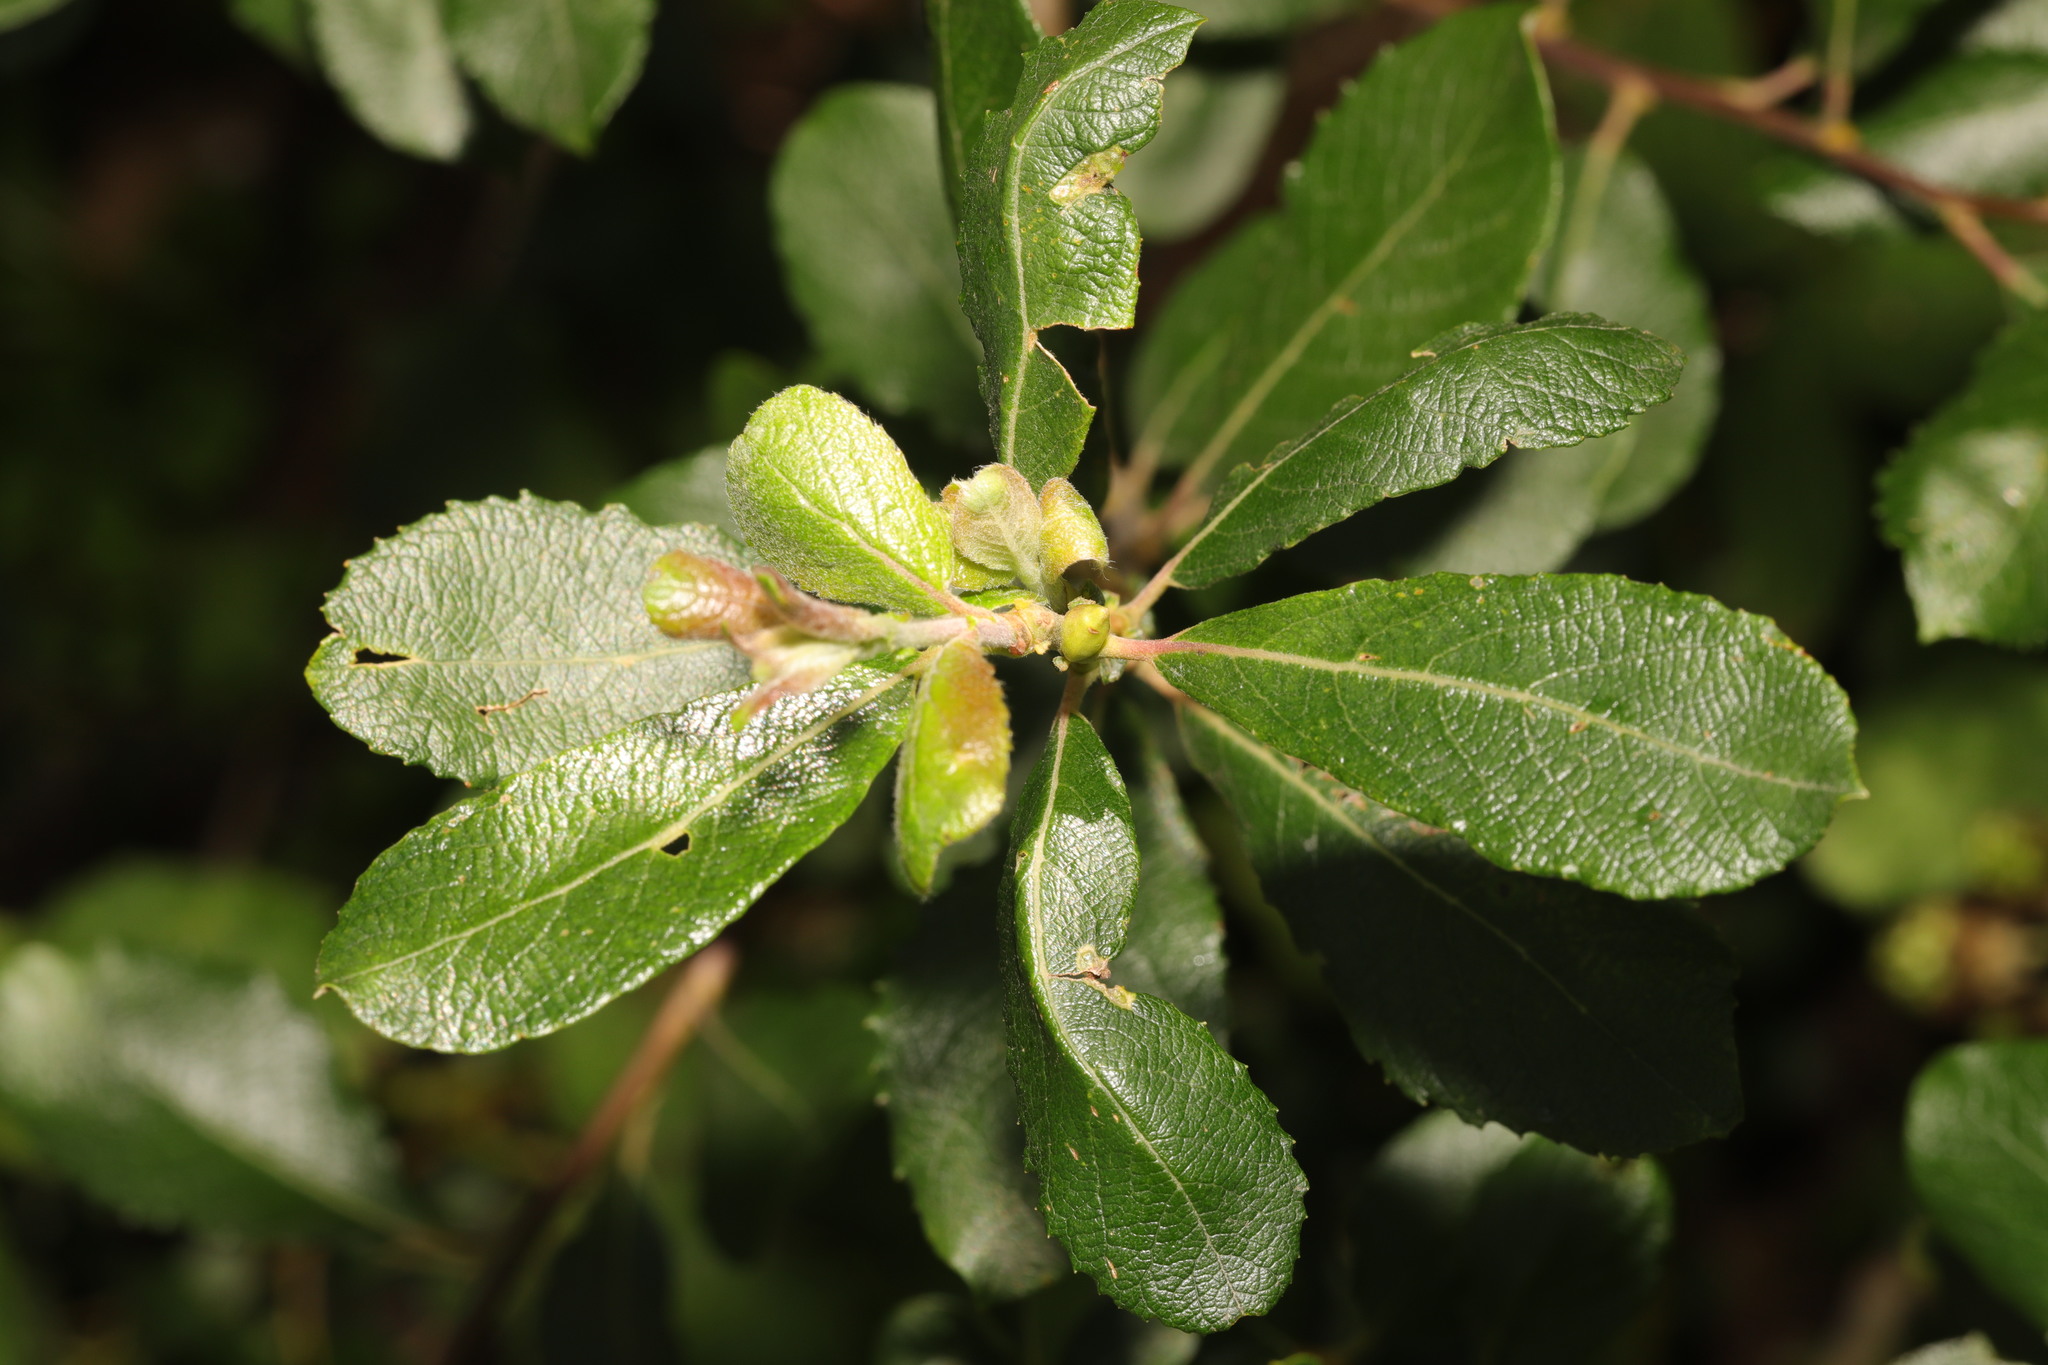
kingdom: Plantae
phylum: Tracheophyta
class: Magnoliopsida
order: Malpighiales
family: Salicaceae
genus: Salix
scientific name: Salix cinerea
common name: Common sallow
